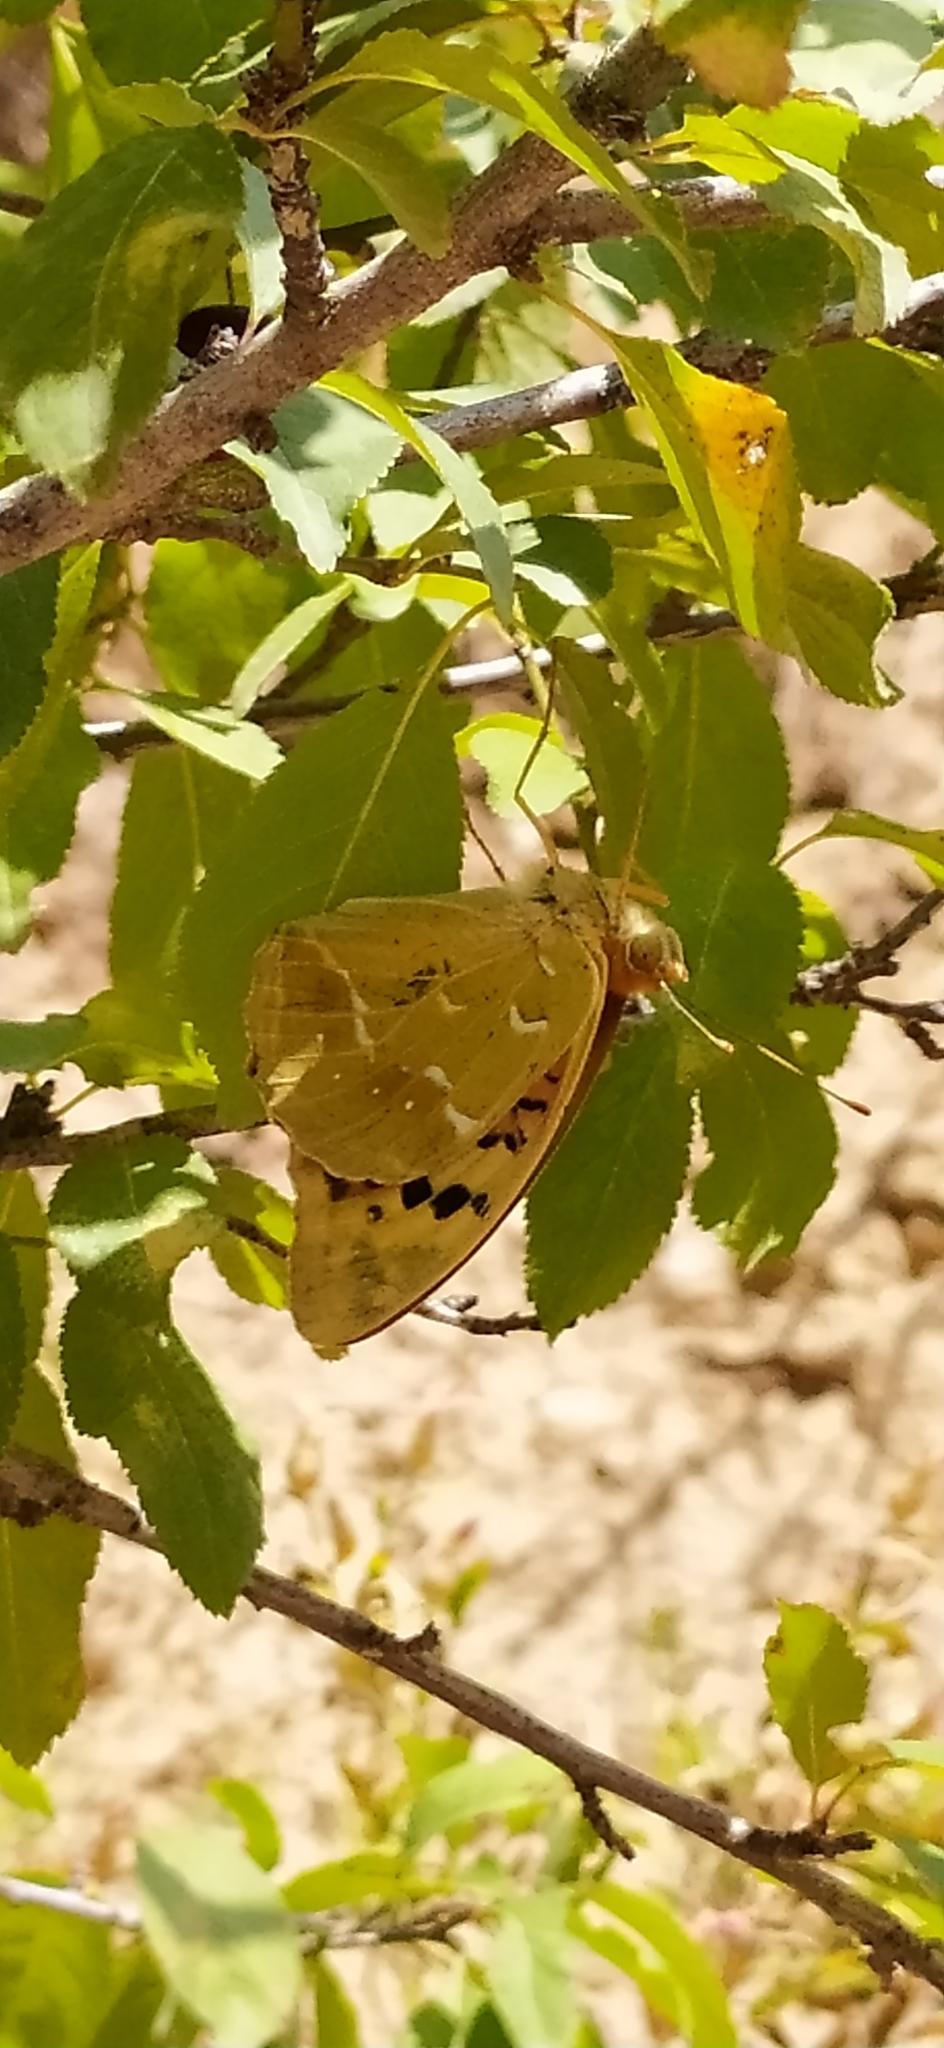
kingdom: Animalia
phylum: Arthropoda
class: Insecta
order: Lepidoptera
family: Nymphalidae
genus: Damora
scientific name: Damora pandora
